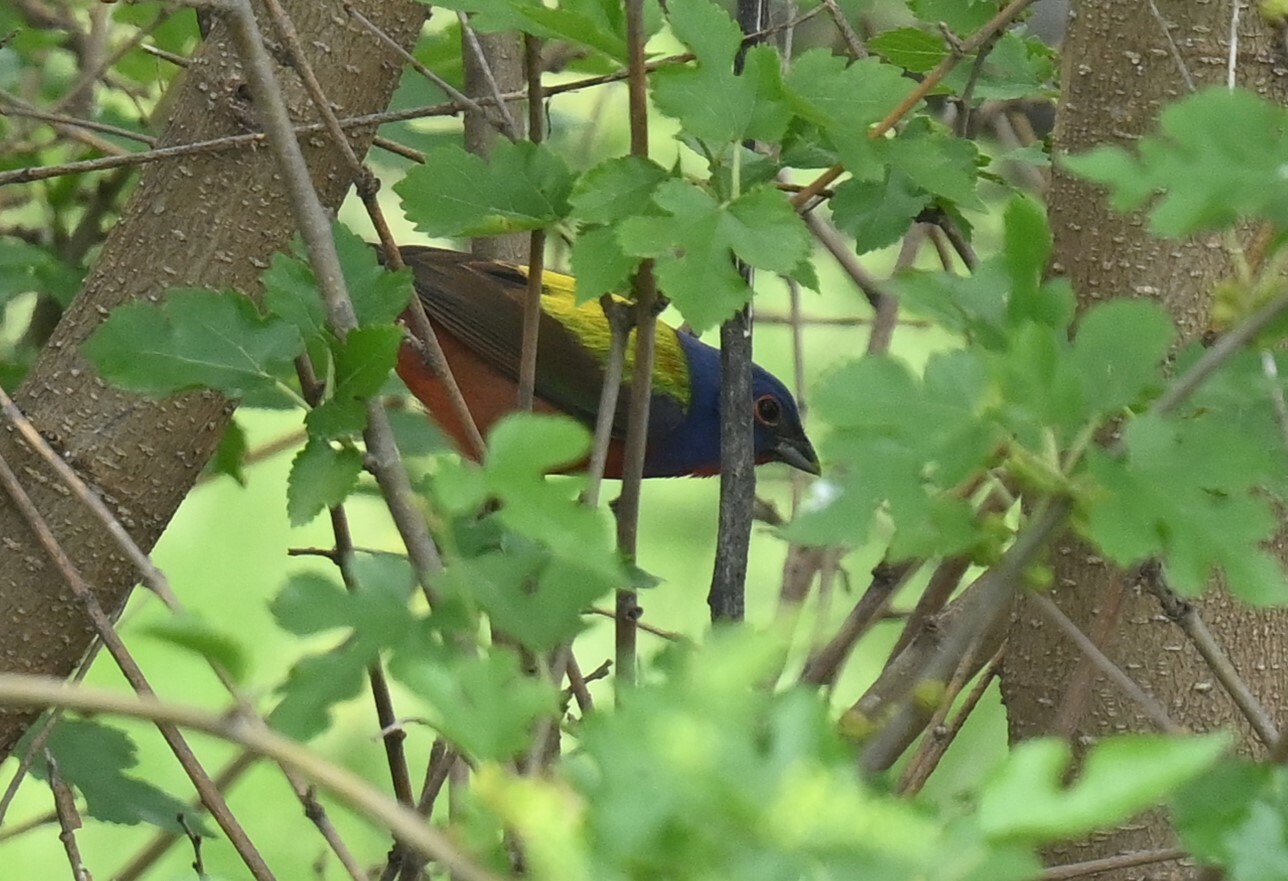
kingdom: Animalia
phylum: Chordata
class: Aves
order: Passeriformes
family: Cardinalidae
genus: Passerina
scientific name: Passerina ciris
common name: Painted bunting
